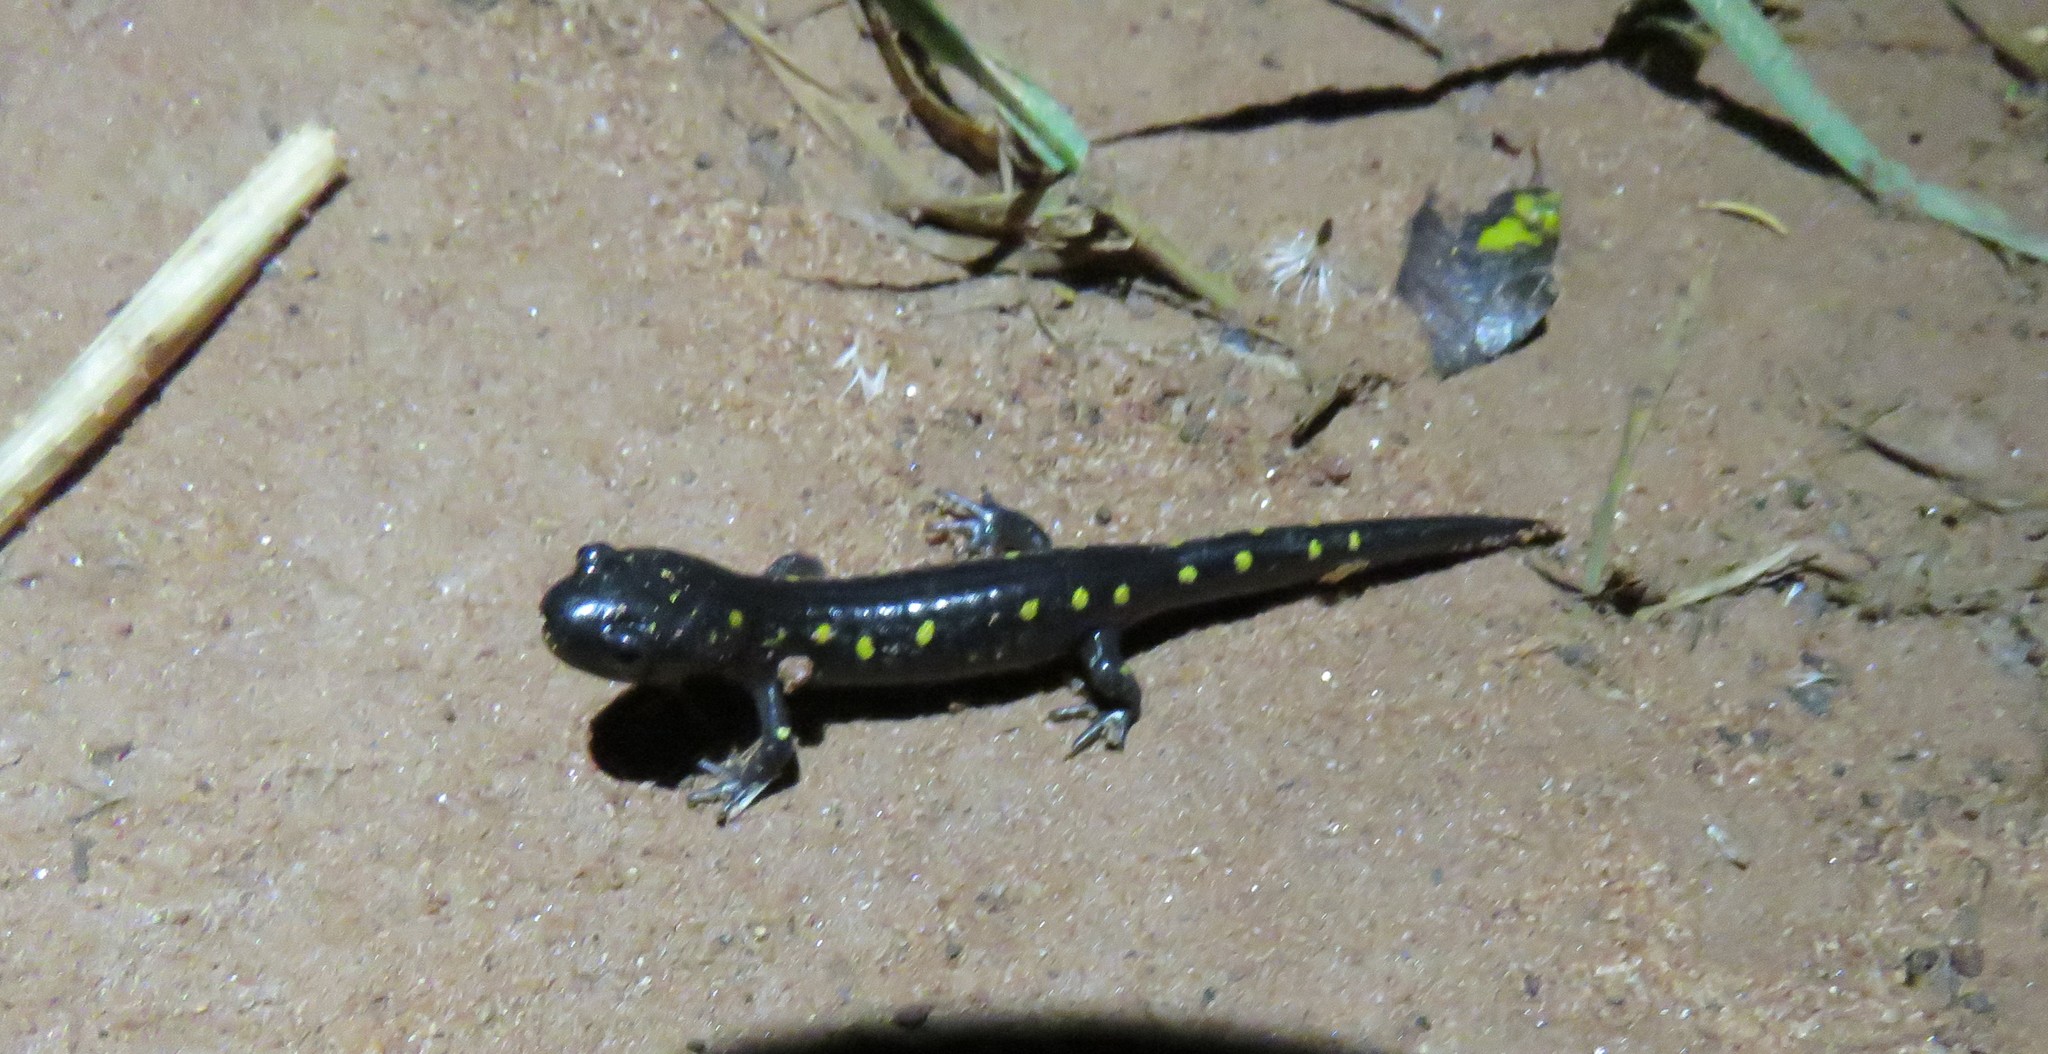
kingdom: Animalia
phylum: Chordata
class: Amphibia
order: Caudata
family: Ambystomatidae
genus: Ambystoma
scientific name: Ambystoma maculatum
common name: Spotted salamander
